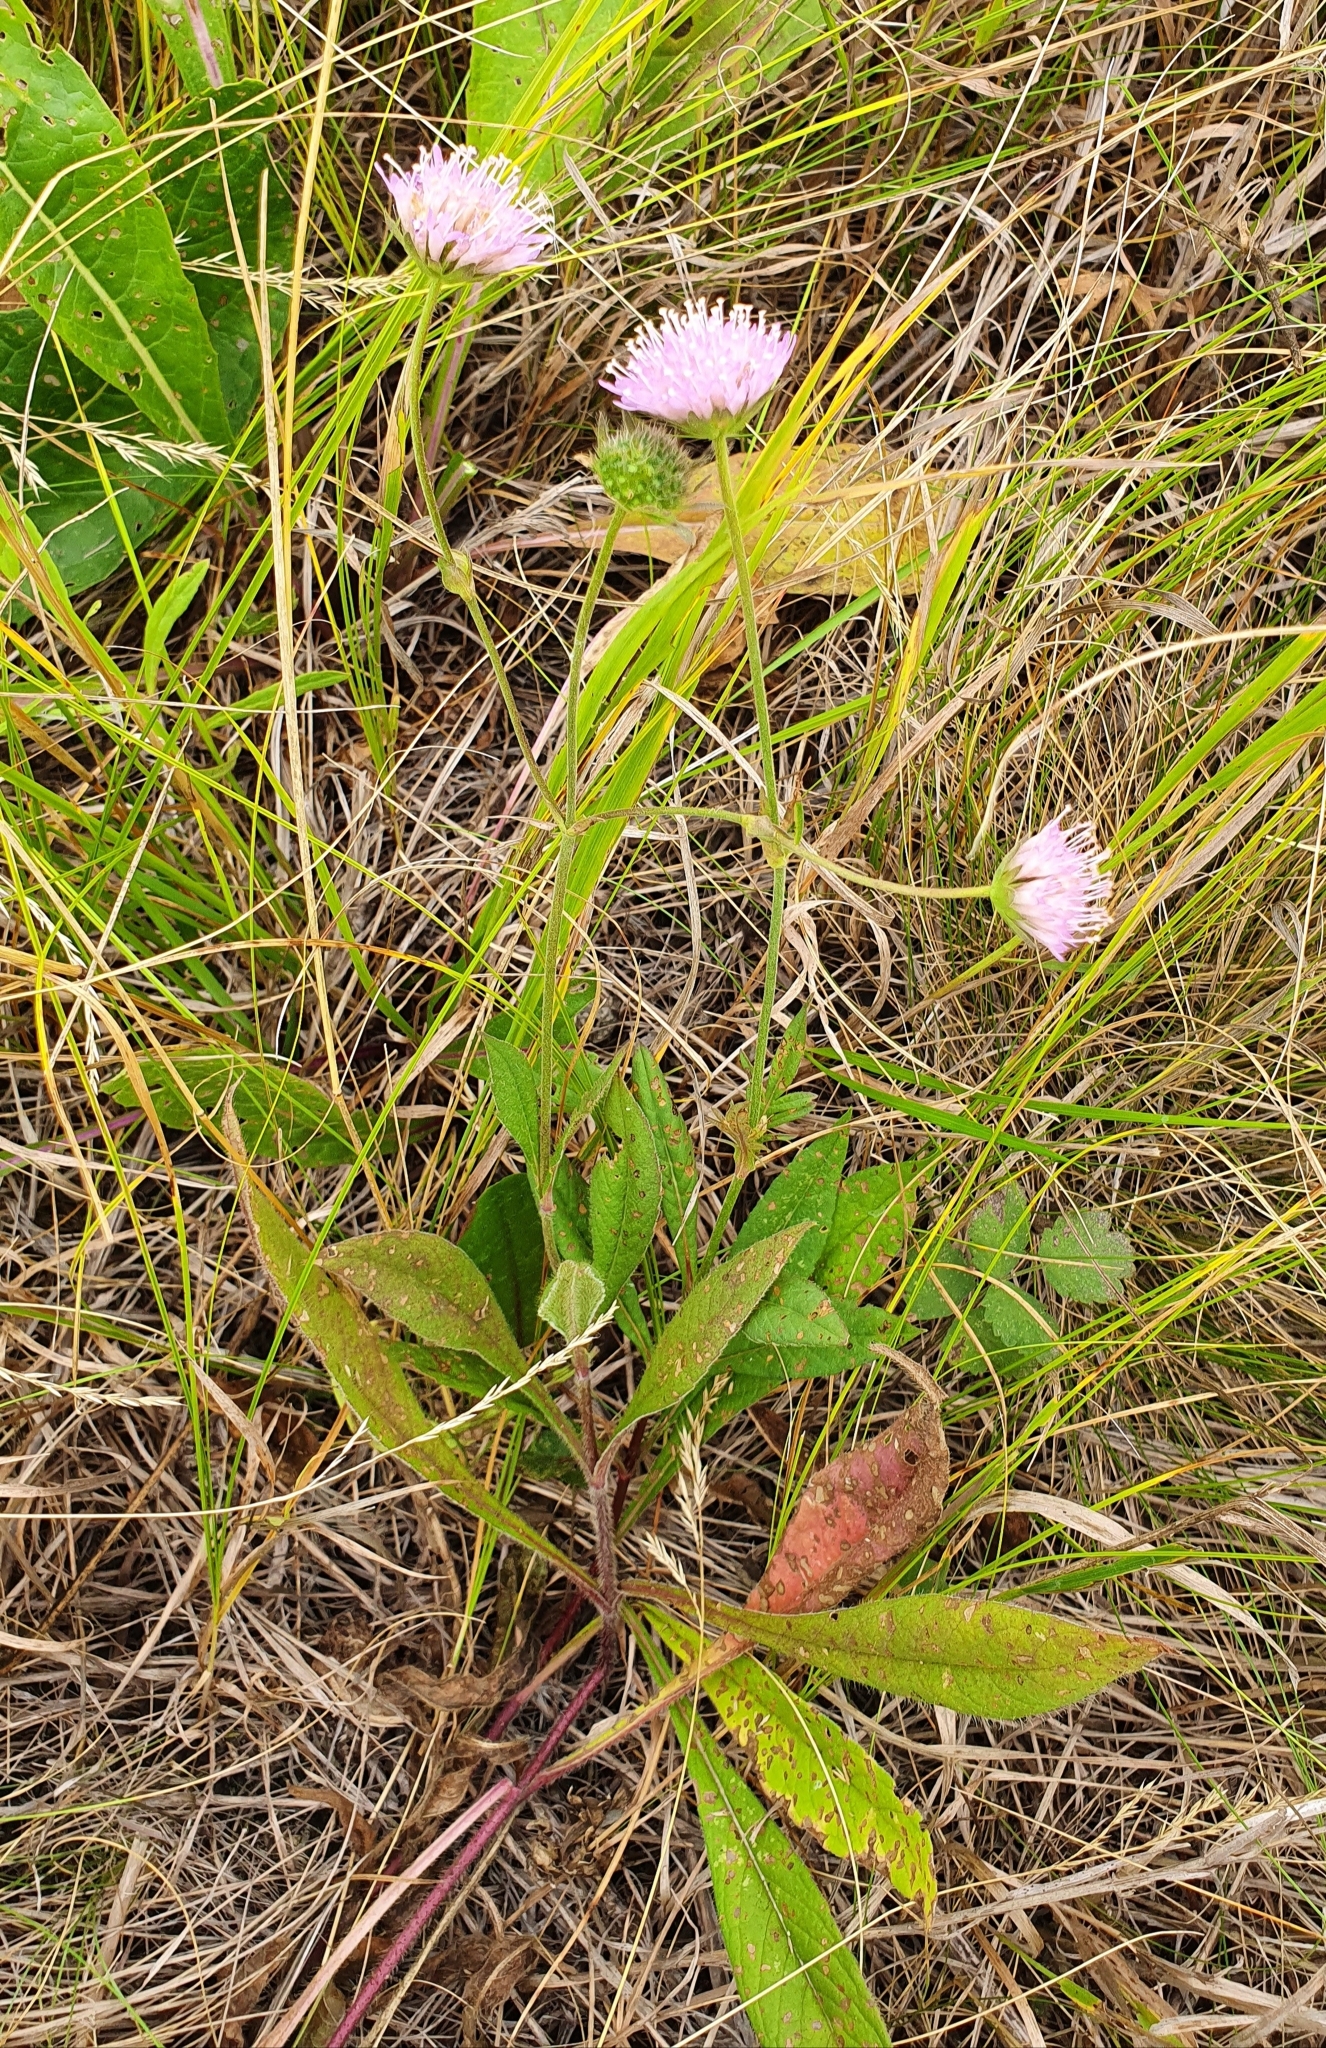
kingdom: Plantae
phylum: Tracheophyta
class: Magnoliopsida
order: Dipsacales
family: Caprifoliaceae
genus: Knautia
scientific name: Knautia arvensis
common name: Field scabiosa
